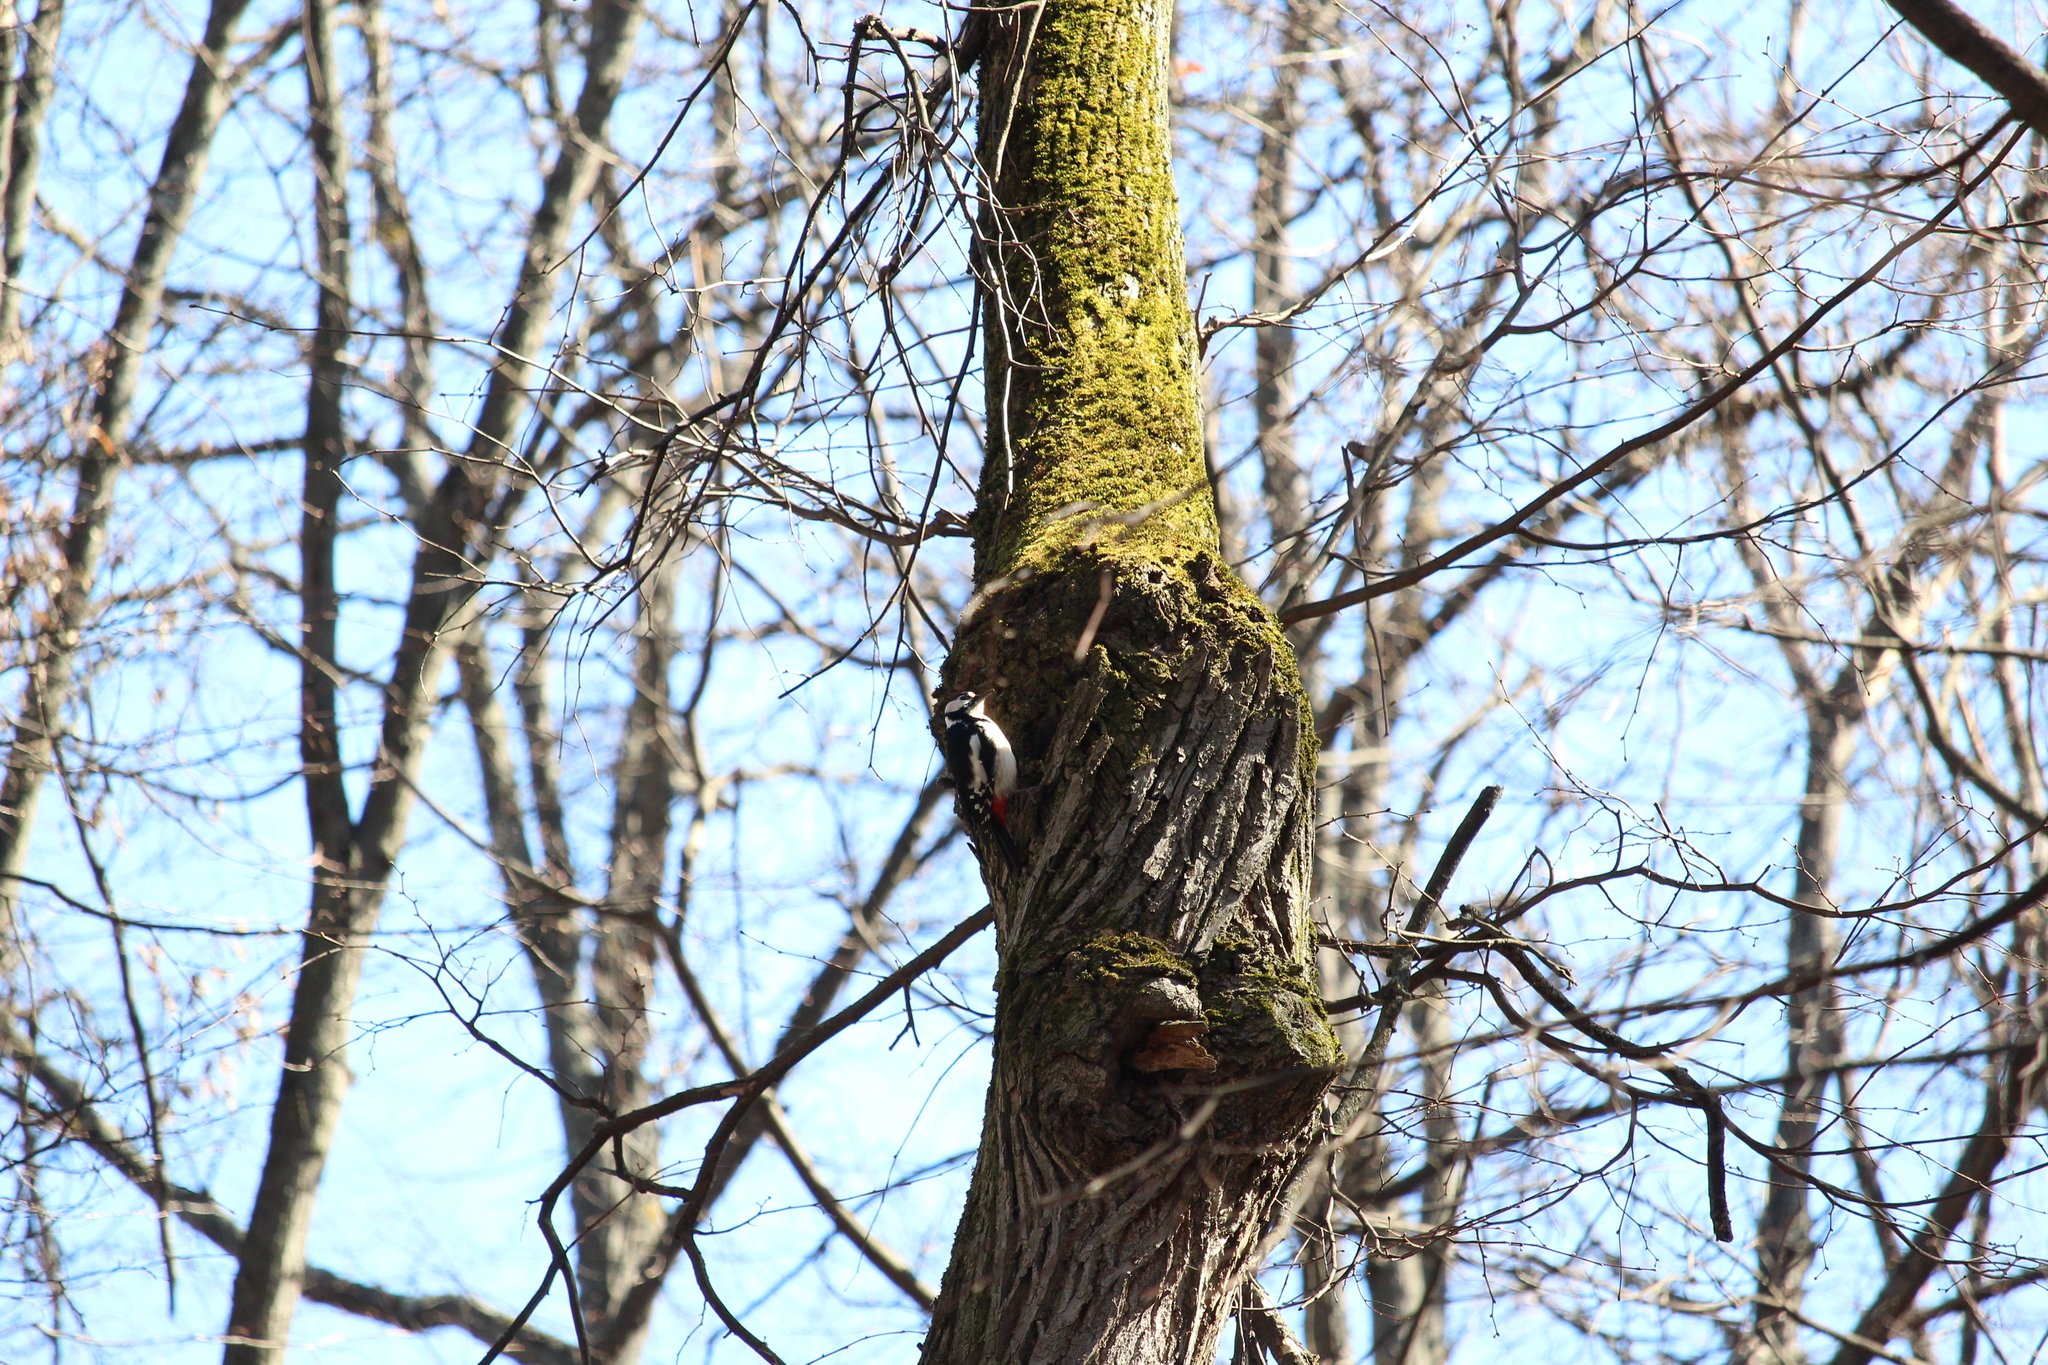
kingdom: Animalia
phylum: Chordata
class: Aves
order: Piciformes
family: Picidae
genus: Dendrocopos
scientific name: Dendrocopos major
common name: Great spotted woodpecker
